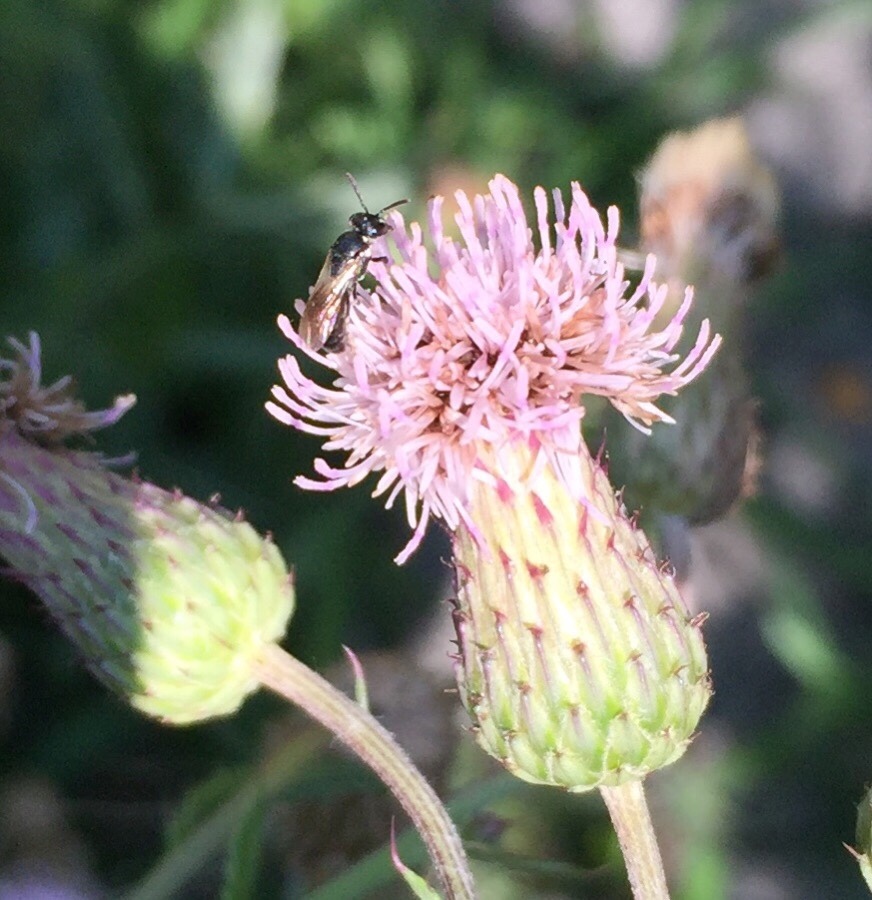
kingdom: Animalia
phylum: Arthropoda
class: Insecta
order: Hymenoptera
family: Colletidae
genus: Hylaeus
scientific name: Hylaeus
